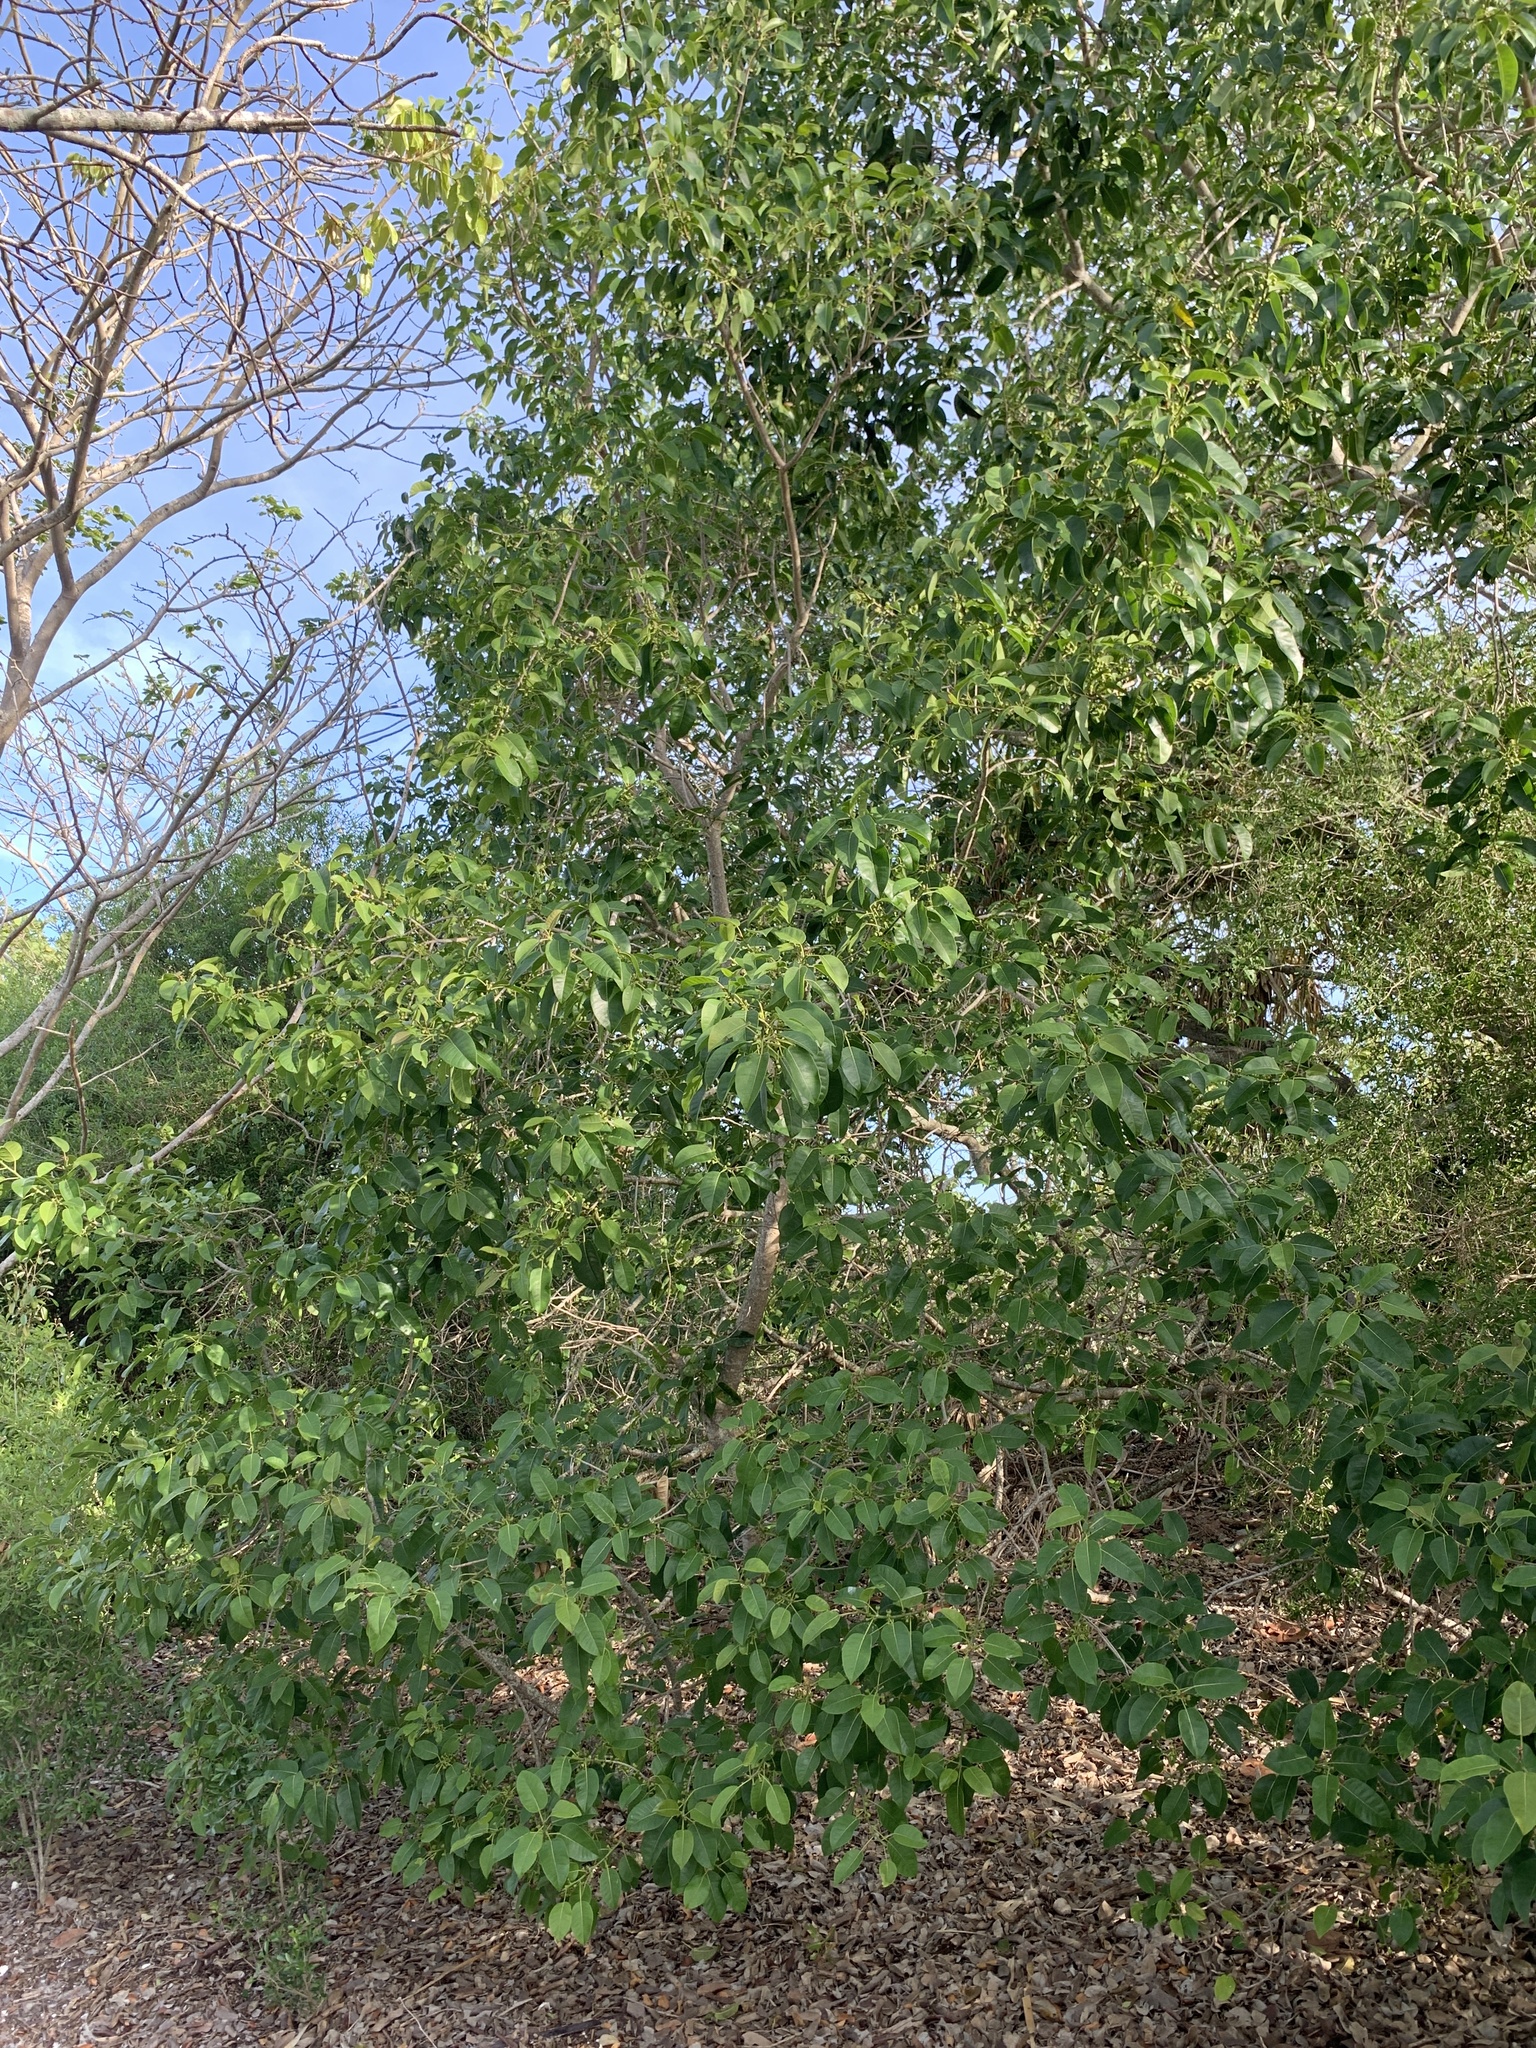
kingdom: Plantae
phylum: Tracheophyta
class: Magnoliopsida
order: Rosales
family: Moraceae
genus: Ficus
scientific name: Ficus citrifolia
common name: Strangler fig
